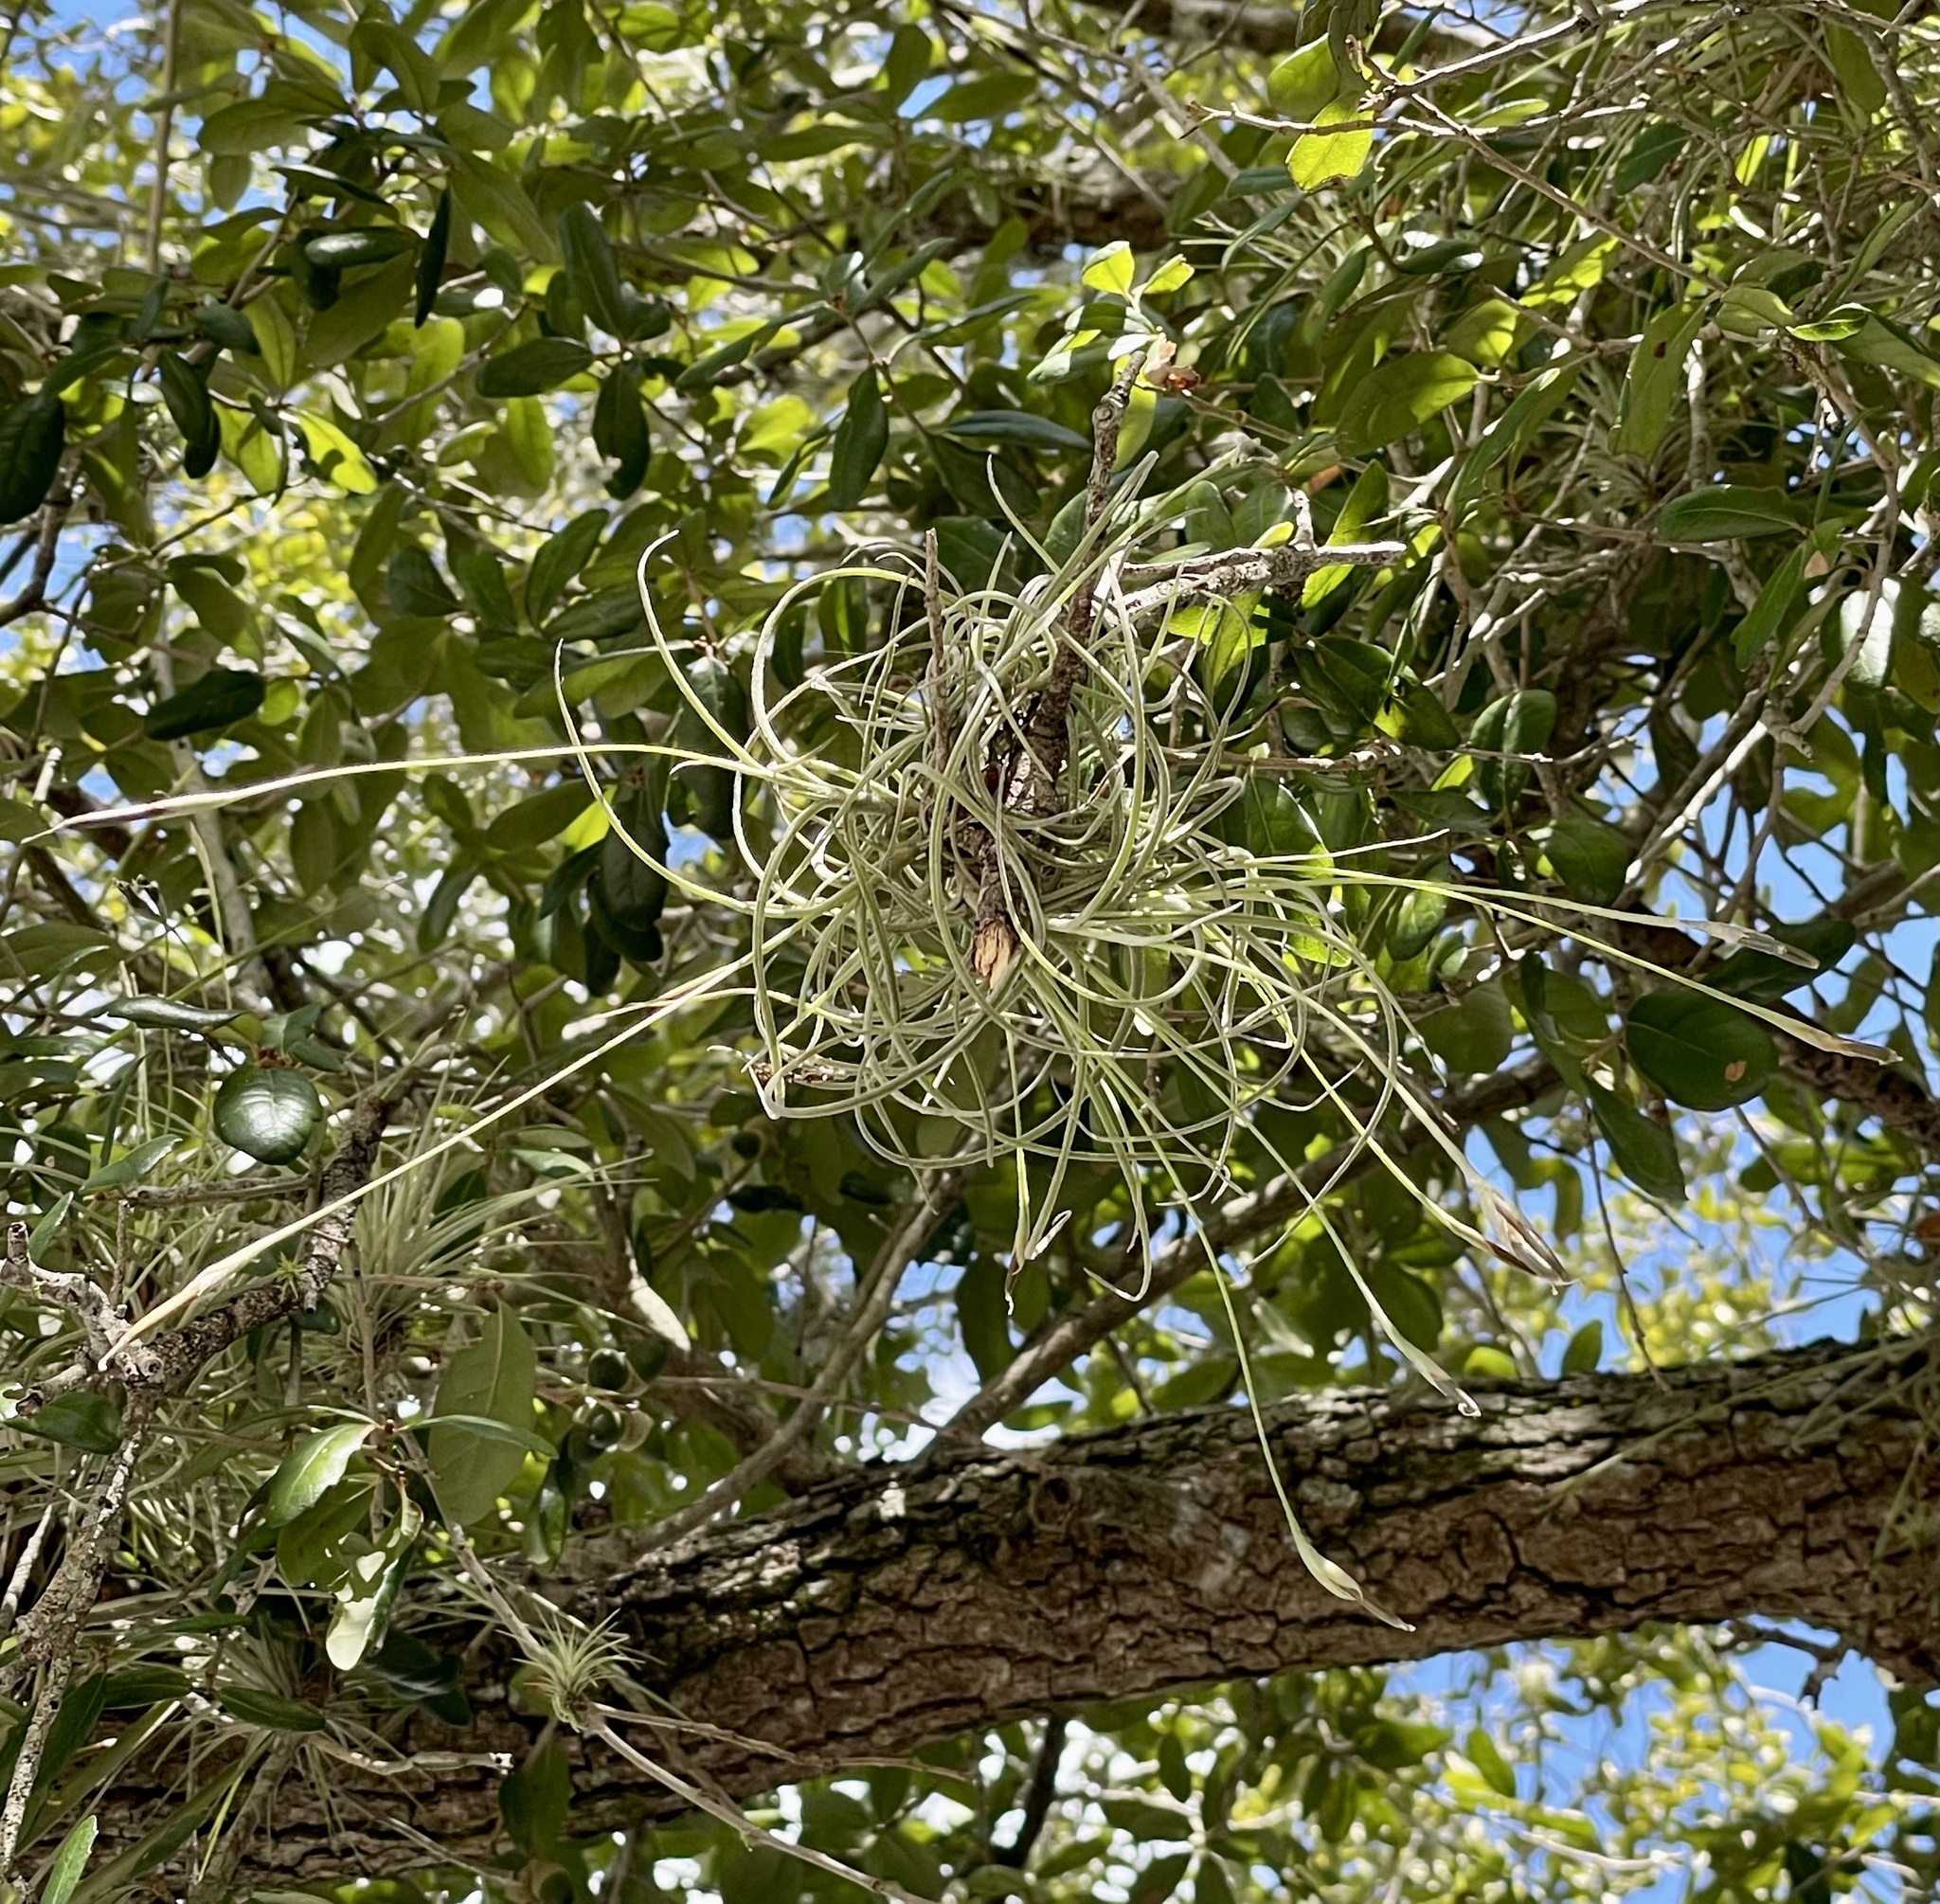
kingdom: Plantae
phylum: Tracheophyta
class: Liliopsida
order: Poales
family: Bromeliaceae
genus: Tillandsia
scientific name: Tillandsia recurvata
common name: Small ballmoss
